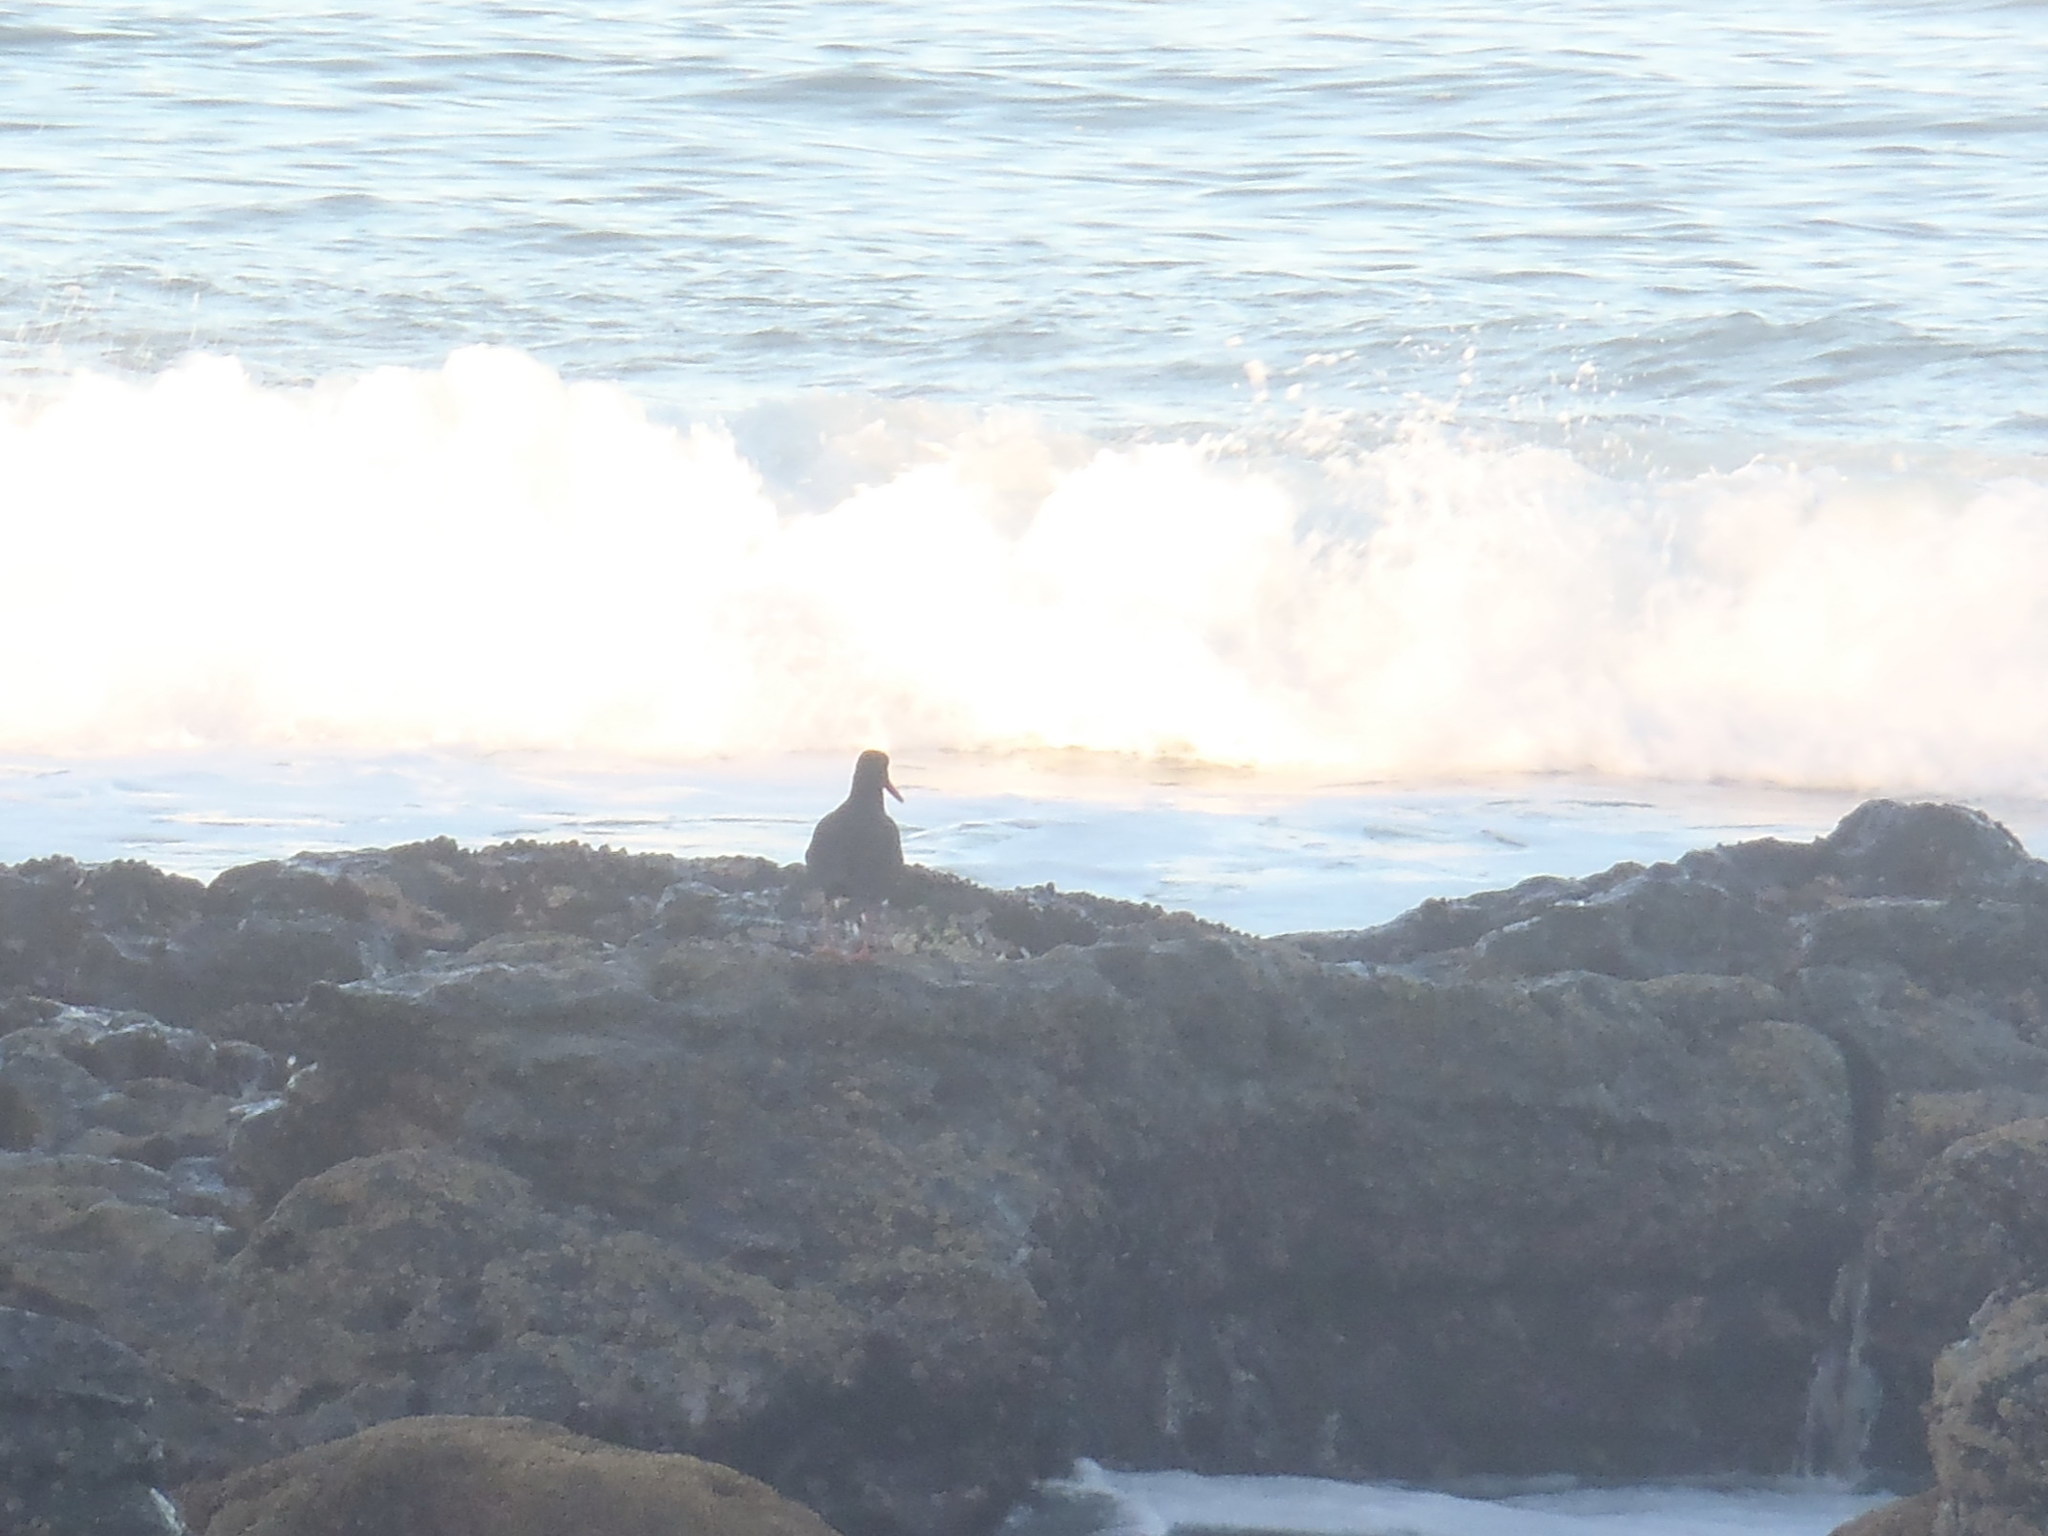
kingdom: Animalia
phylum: Chordata
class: Aves
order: Charadriiformes
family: Haematopodidae
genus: Haematopus
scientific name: Haematopus moquini
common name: African oystercatcher
